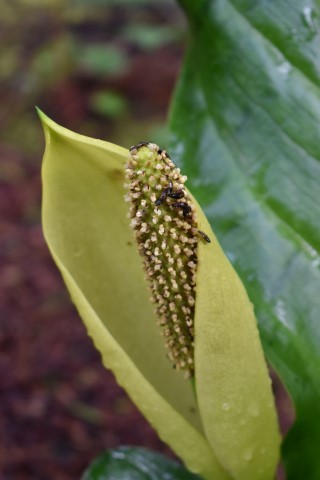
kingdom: Plantae
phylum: Tracheophyta
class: Liliopsida
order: Alismatales
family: Araceae
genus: Lysichiton
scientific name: Lysichiton americanus
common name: American skunk cabbage
